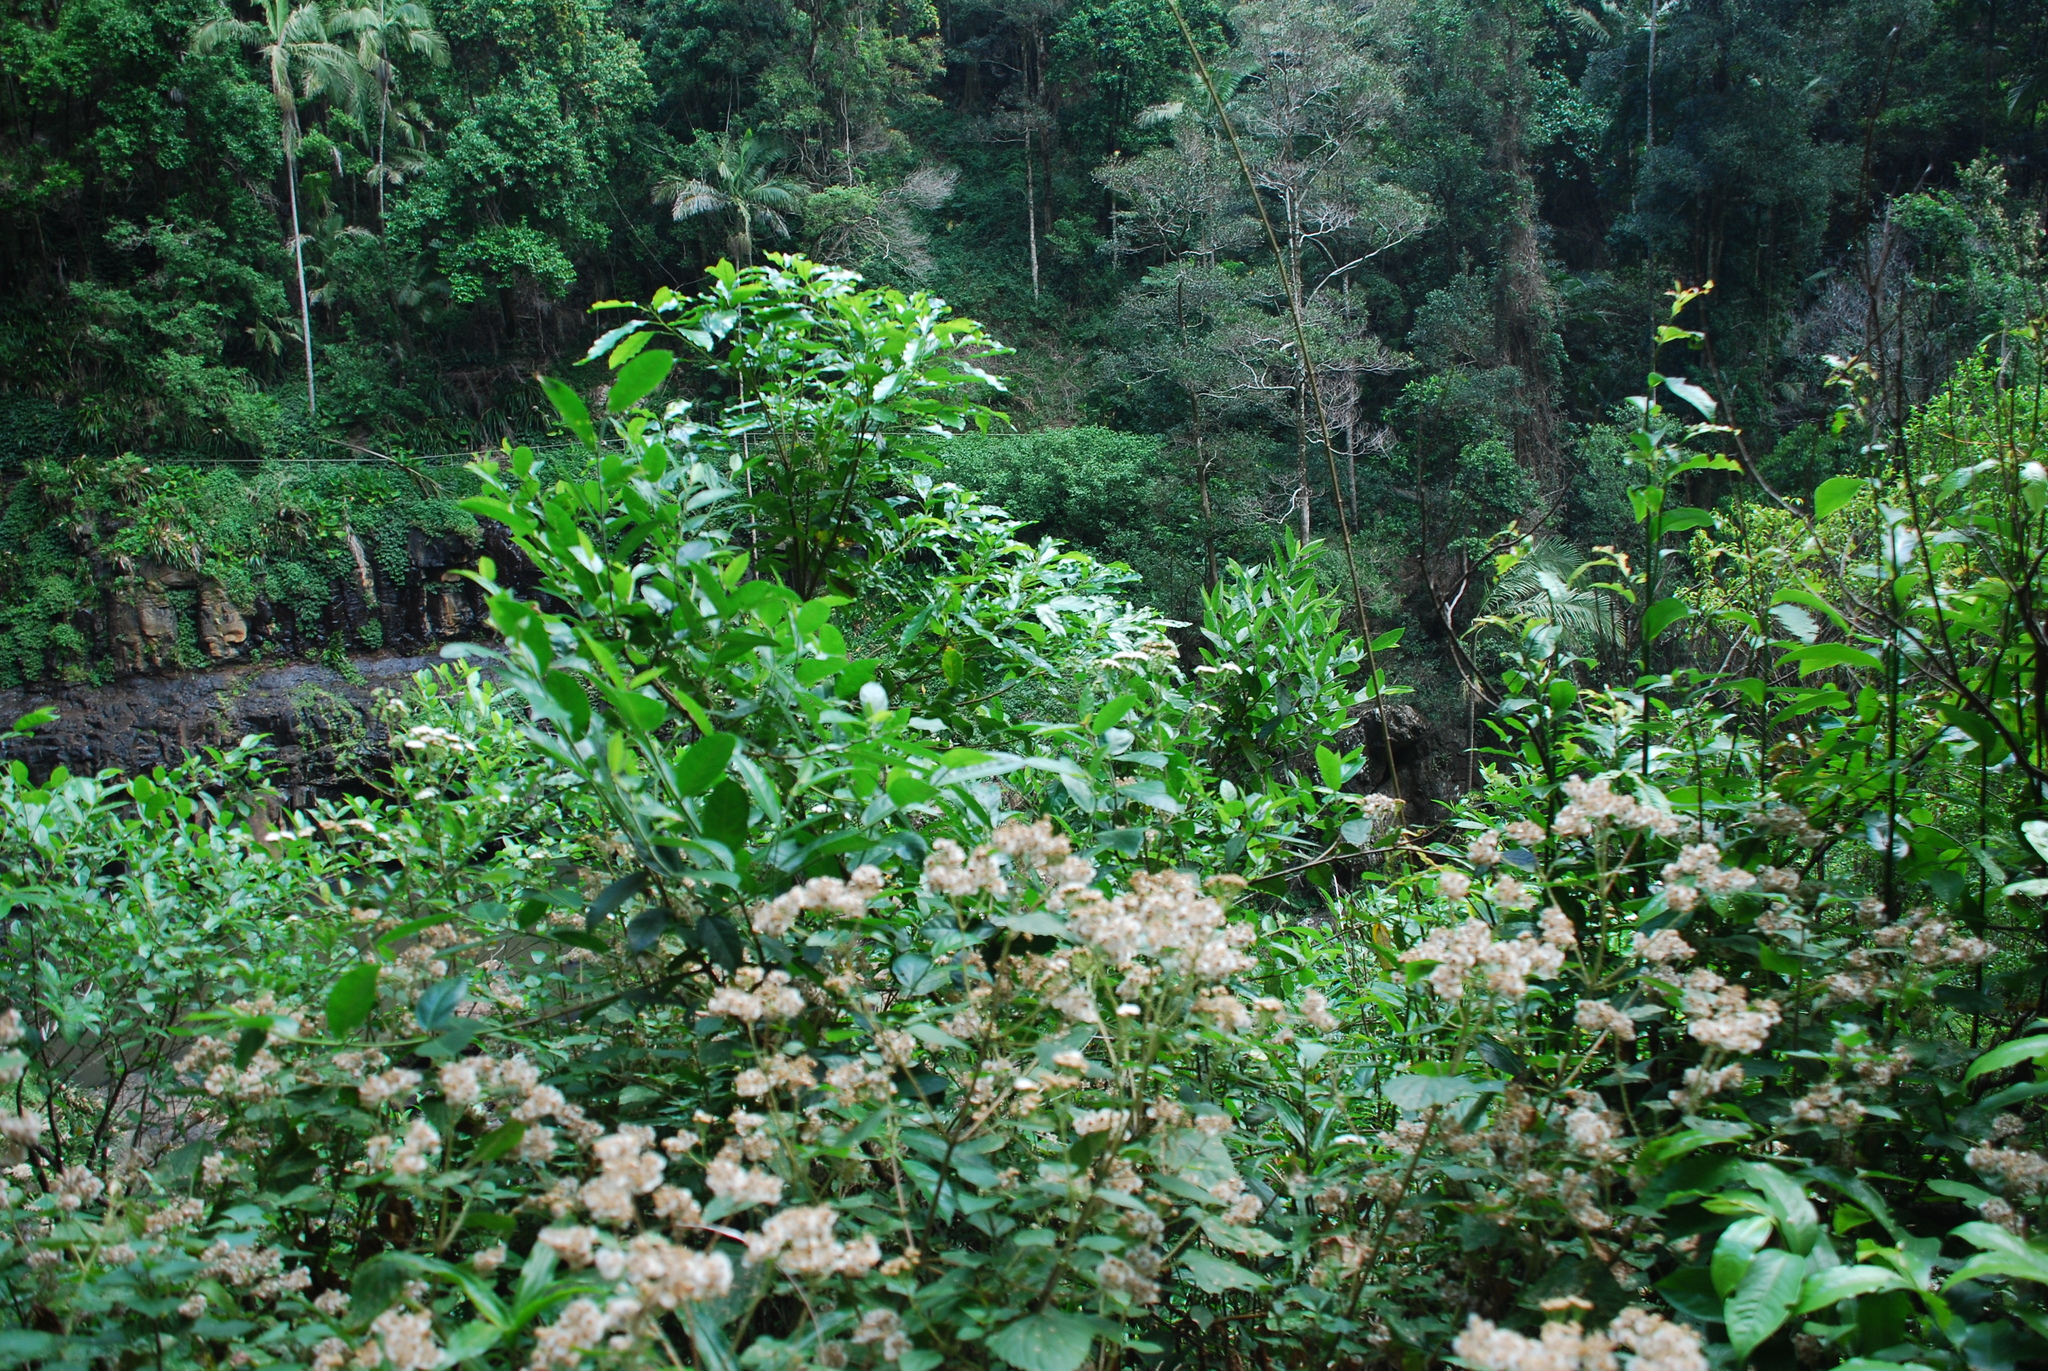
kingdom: Plantae
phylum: Tracheophyta
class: Magnoliopsida
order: Asterales
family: Asteraceae
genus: Ageratina
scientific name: Ageratina adenophora
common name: Sticky snakeroot
